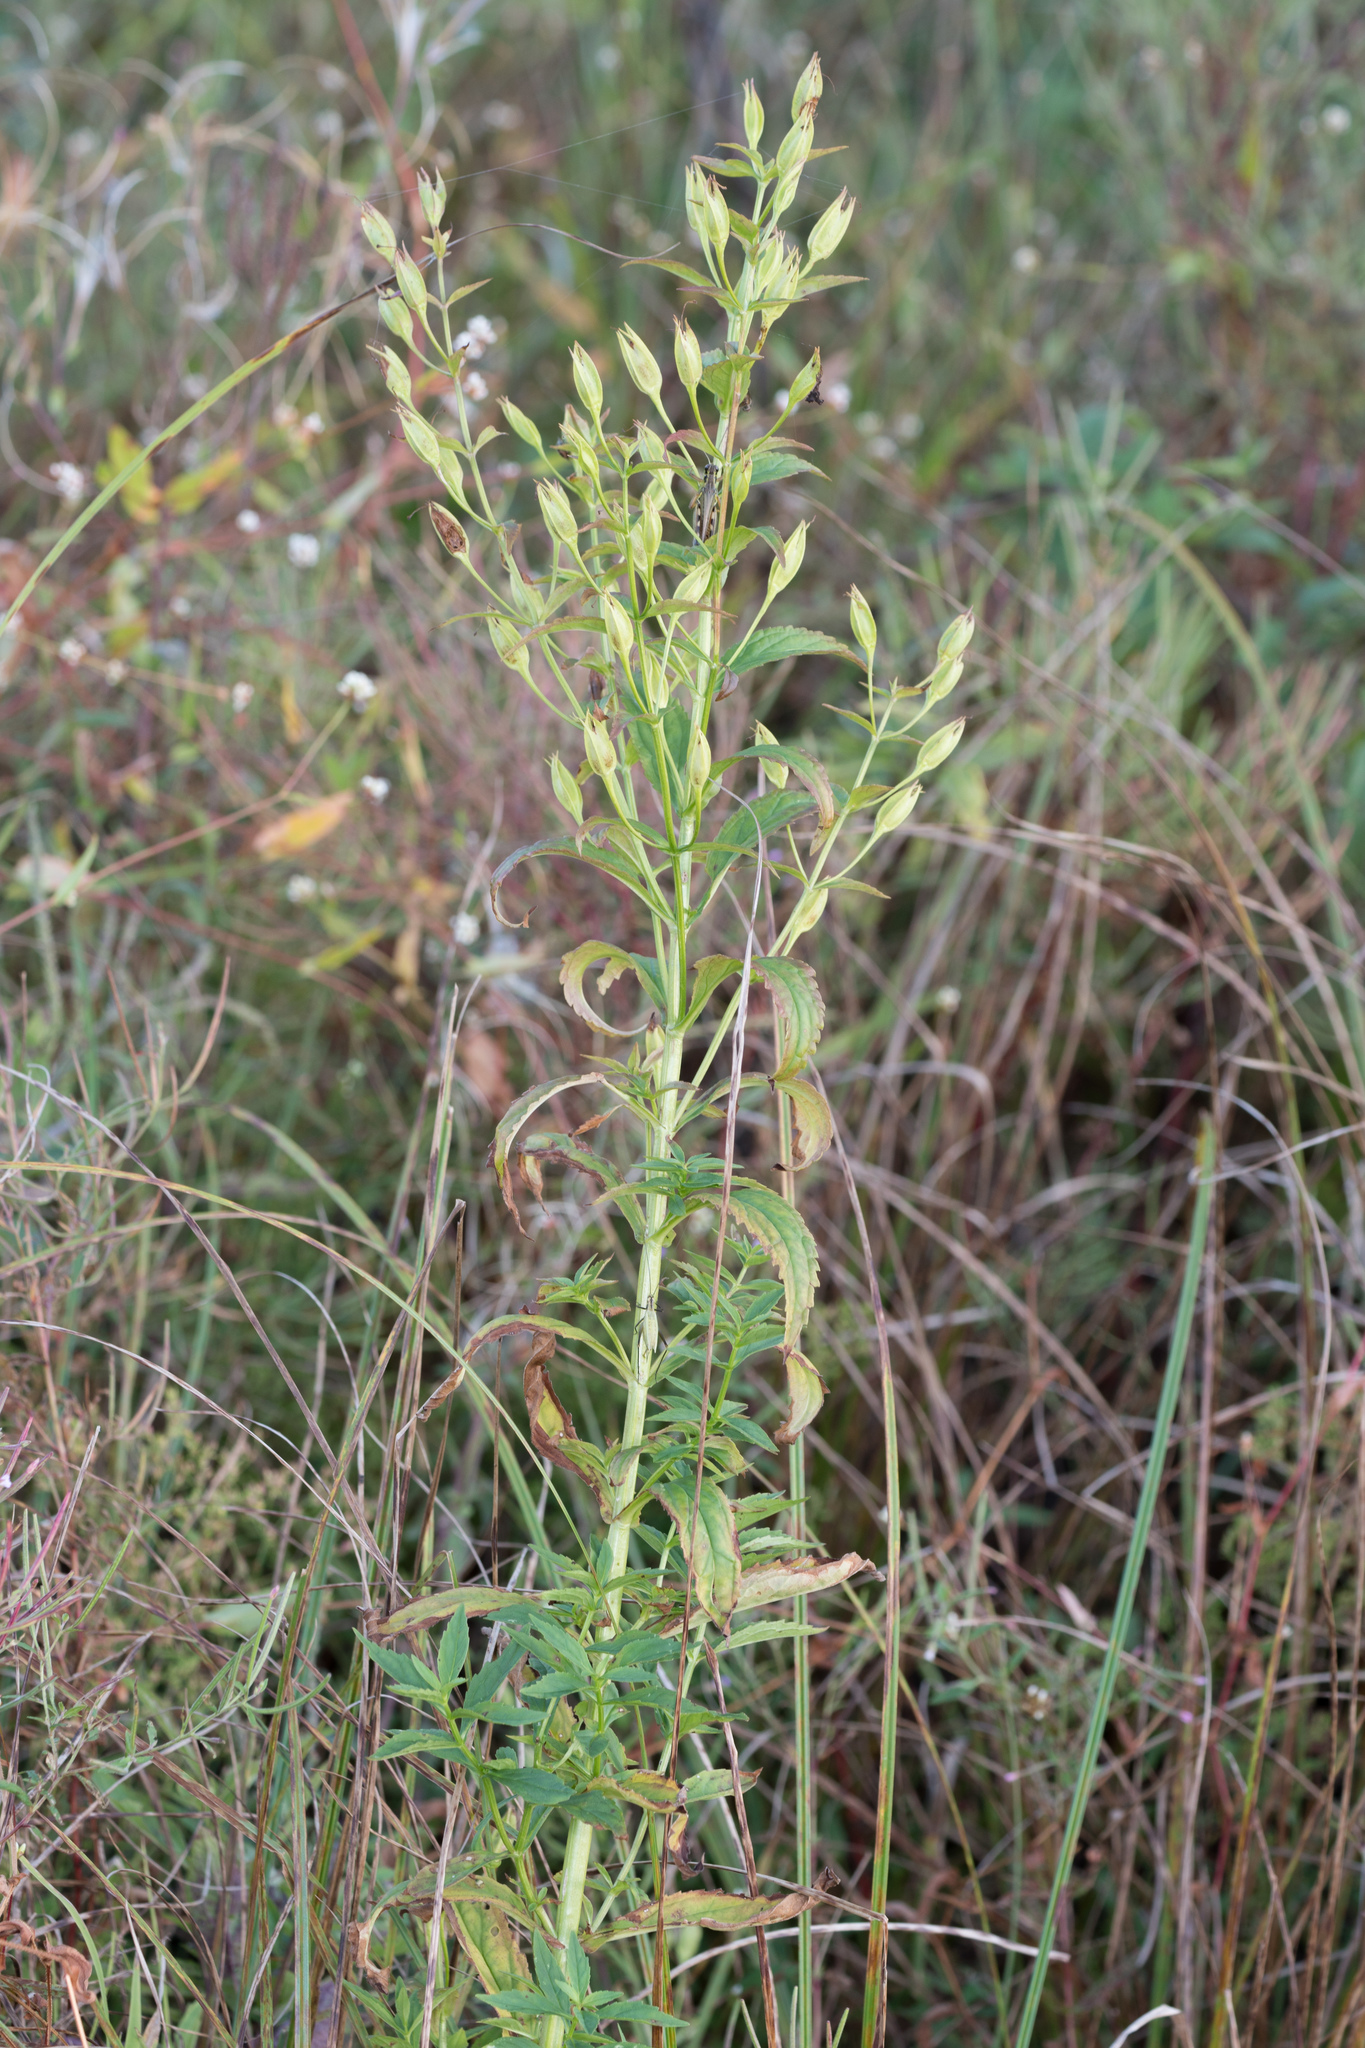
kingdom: Plantae
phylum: Tracheophyta
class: Magnoliopsida
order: Lamiales
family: Phrymaceae
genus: Mimulus
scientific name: Mimulus ringens
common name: Allegheny monkeyflower
